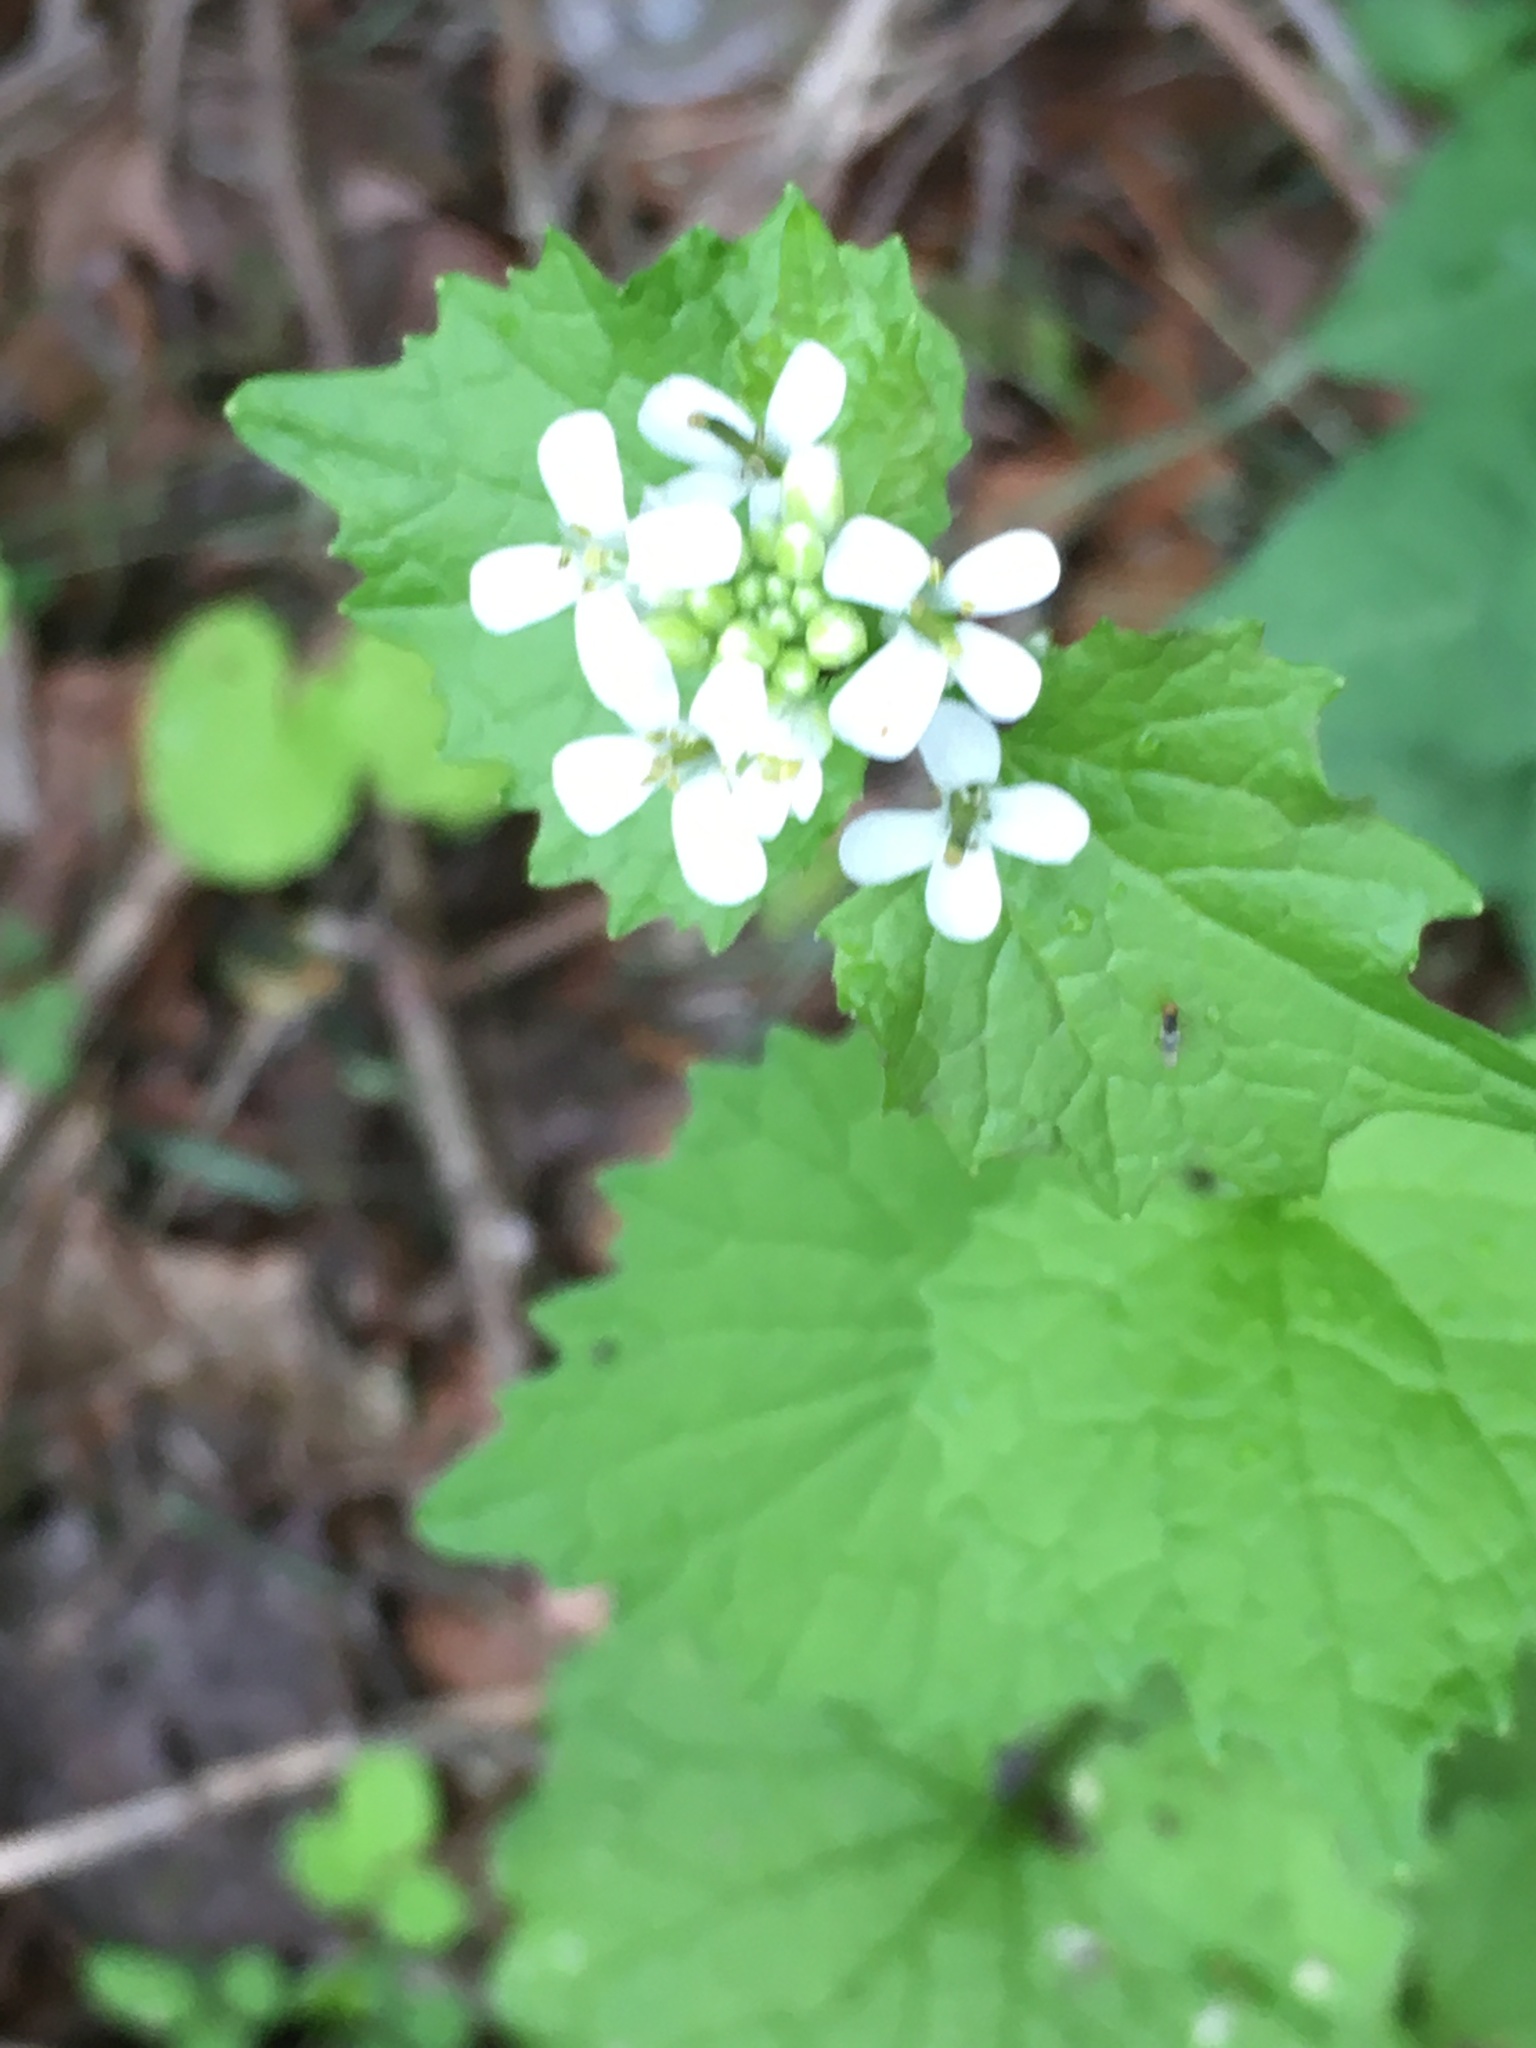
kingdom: Plantae
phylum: Tracheophyta
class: Magnoliopsida
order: Brassicales
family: Brassicaceae
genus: Alliaria
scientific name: Alliaria petiolata
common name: Garlic mustard
